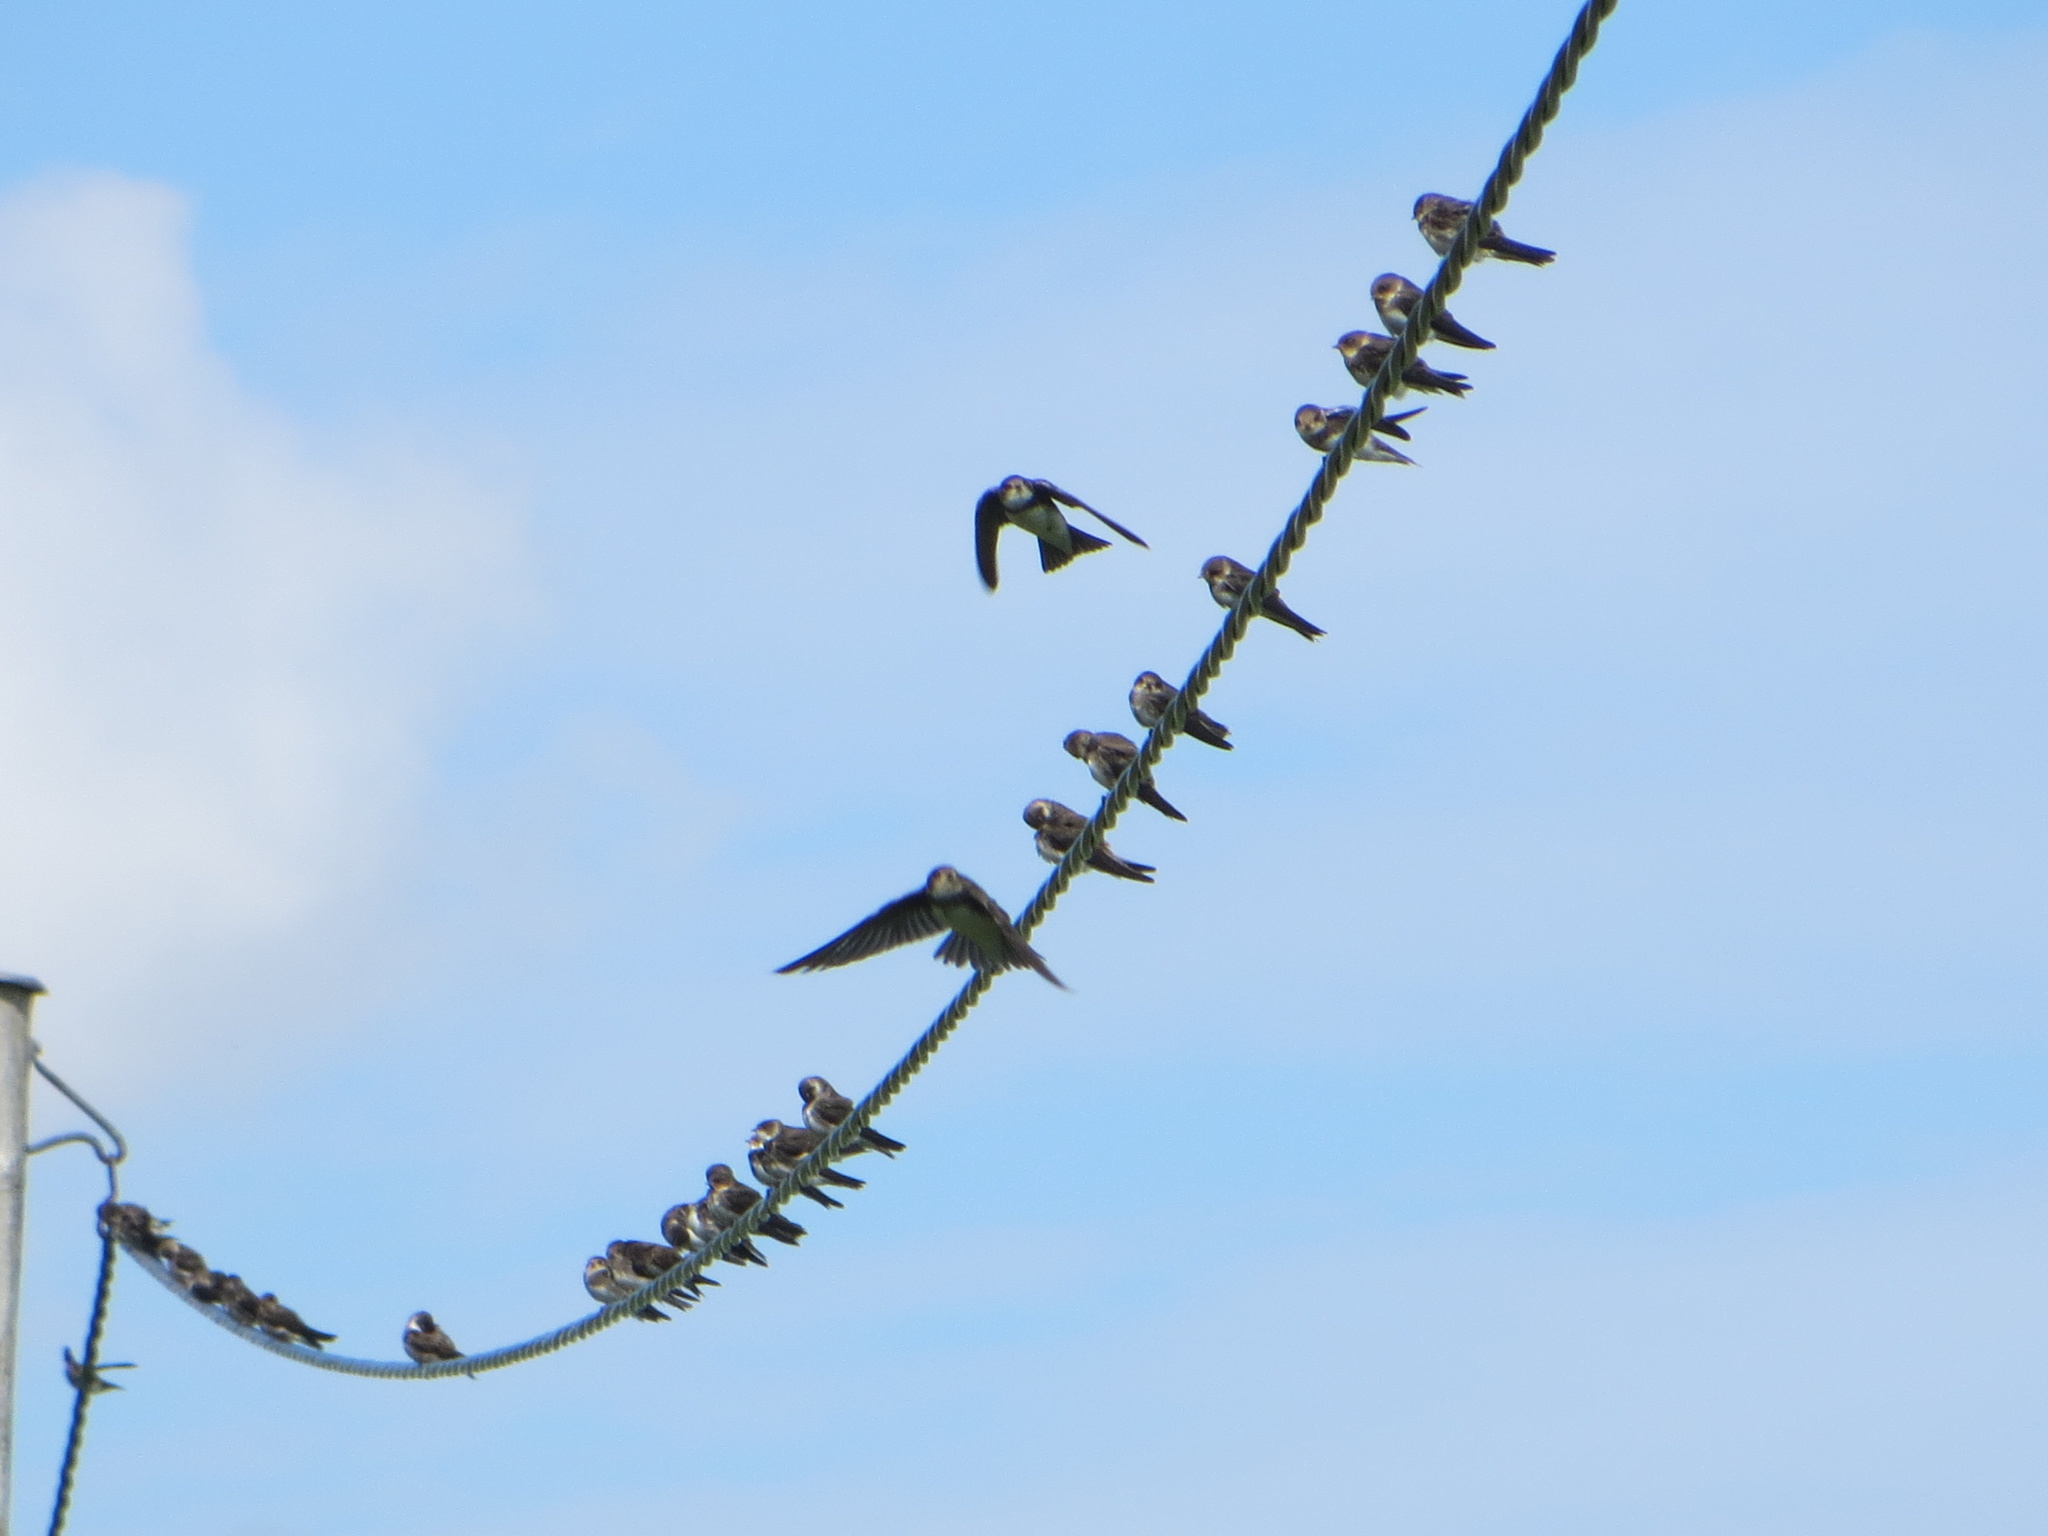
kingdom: Animalia
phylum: Chordata
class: Aves
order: Passeriformes
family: Hirundinidae
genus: Riparia
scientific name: Riparia riparia
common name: Sand martin
